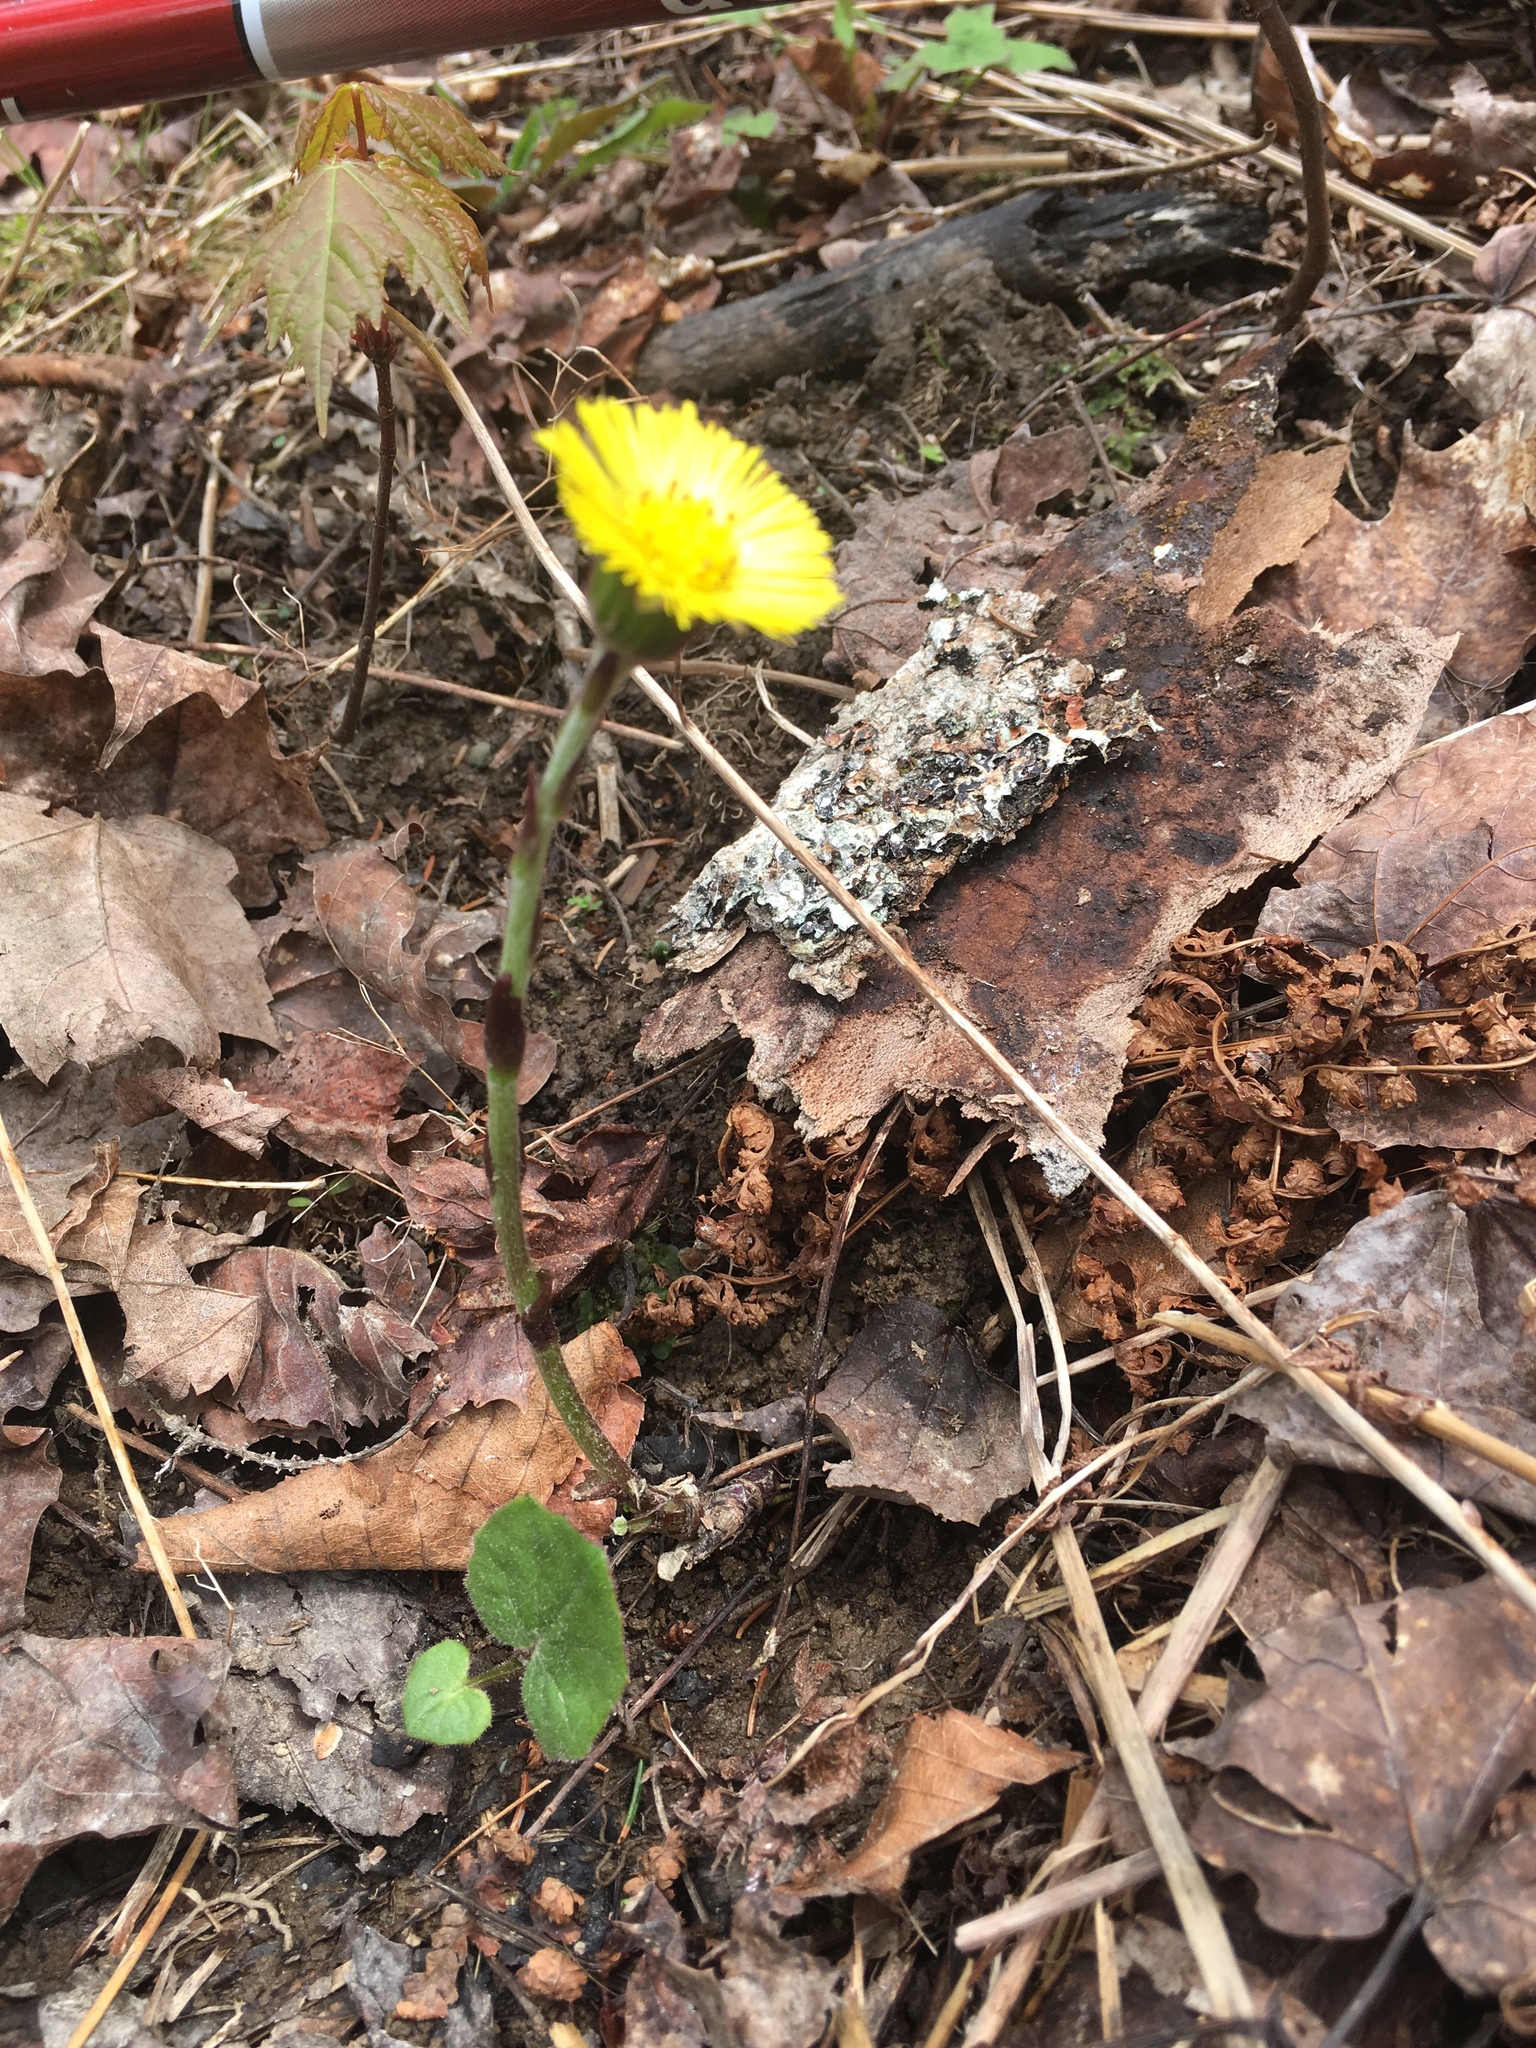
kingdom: Plantae
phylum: Tracheophyta
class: Magnoliopsida
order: Asterales
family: Asteraceae
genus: Tussilago
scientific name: Tussilago farfara
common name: Coltsfoot
